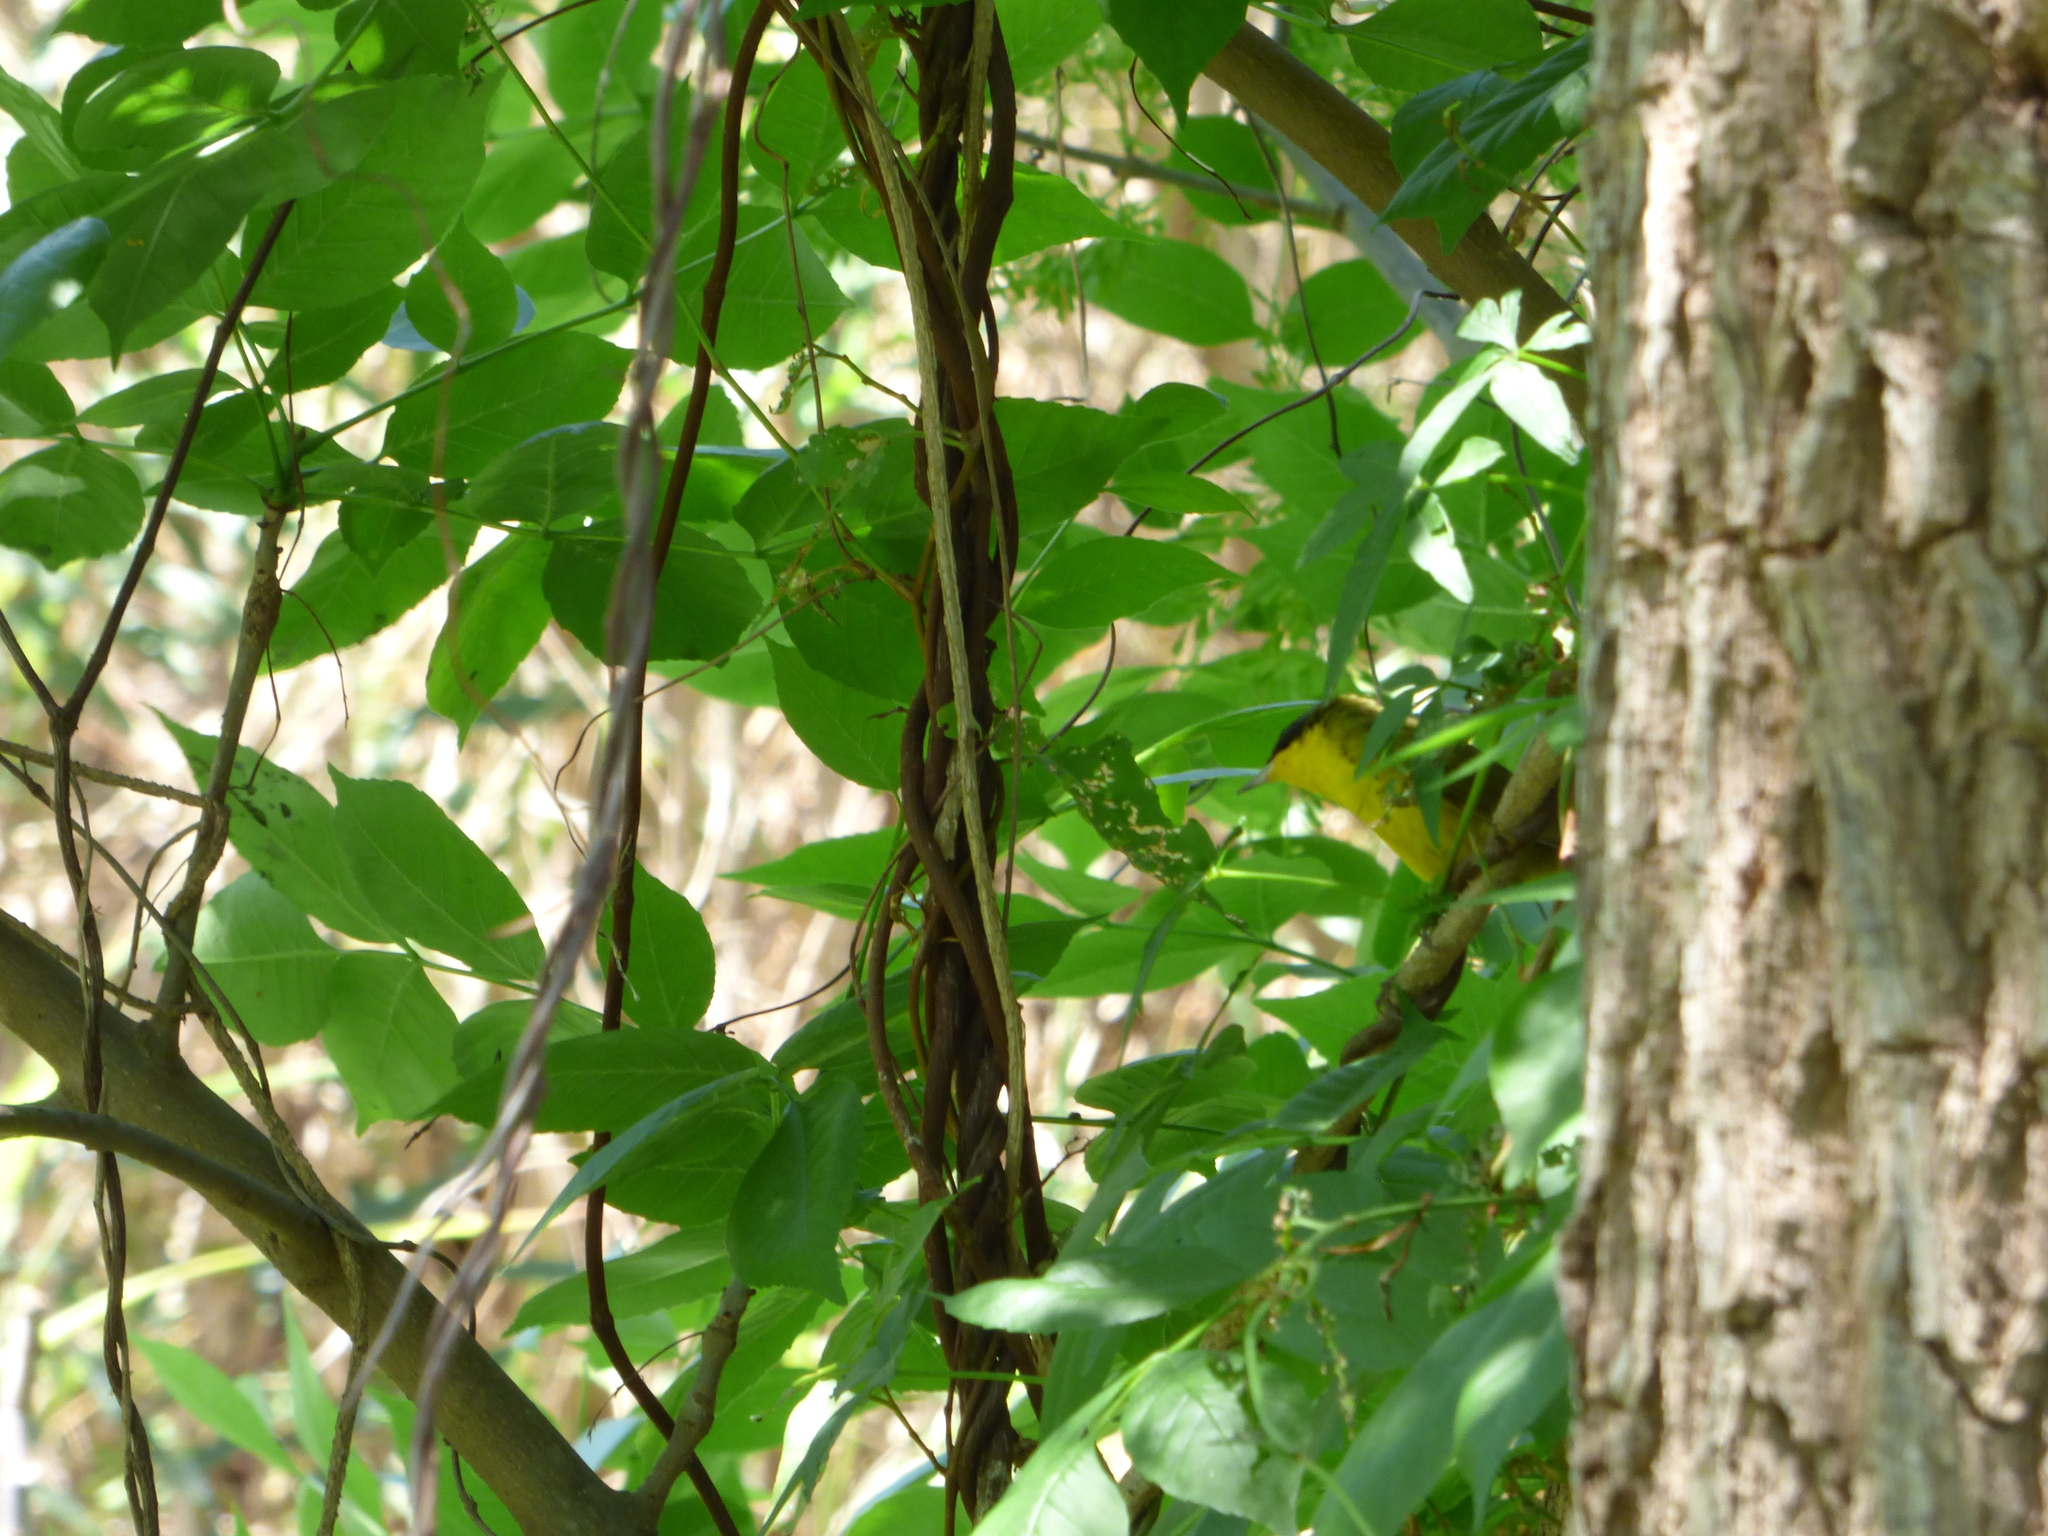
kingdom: Animalia
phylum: Chordata
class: Aves
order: Passeriformes
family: Parulidae
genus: Geothlypis
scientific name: Geothlypis velata
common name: Southern yellowthroat
